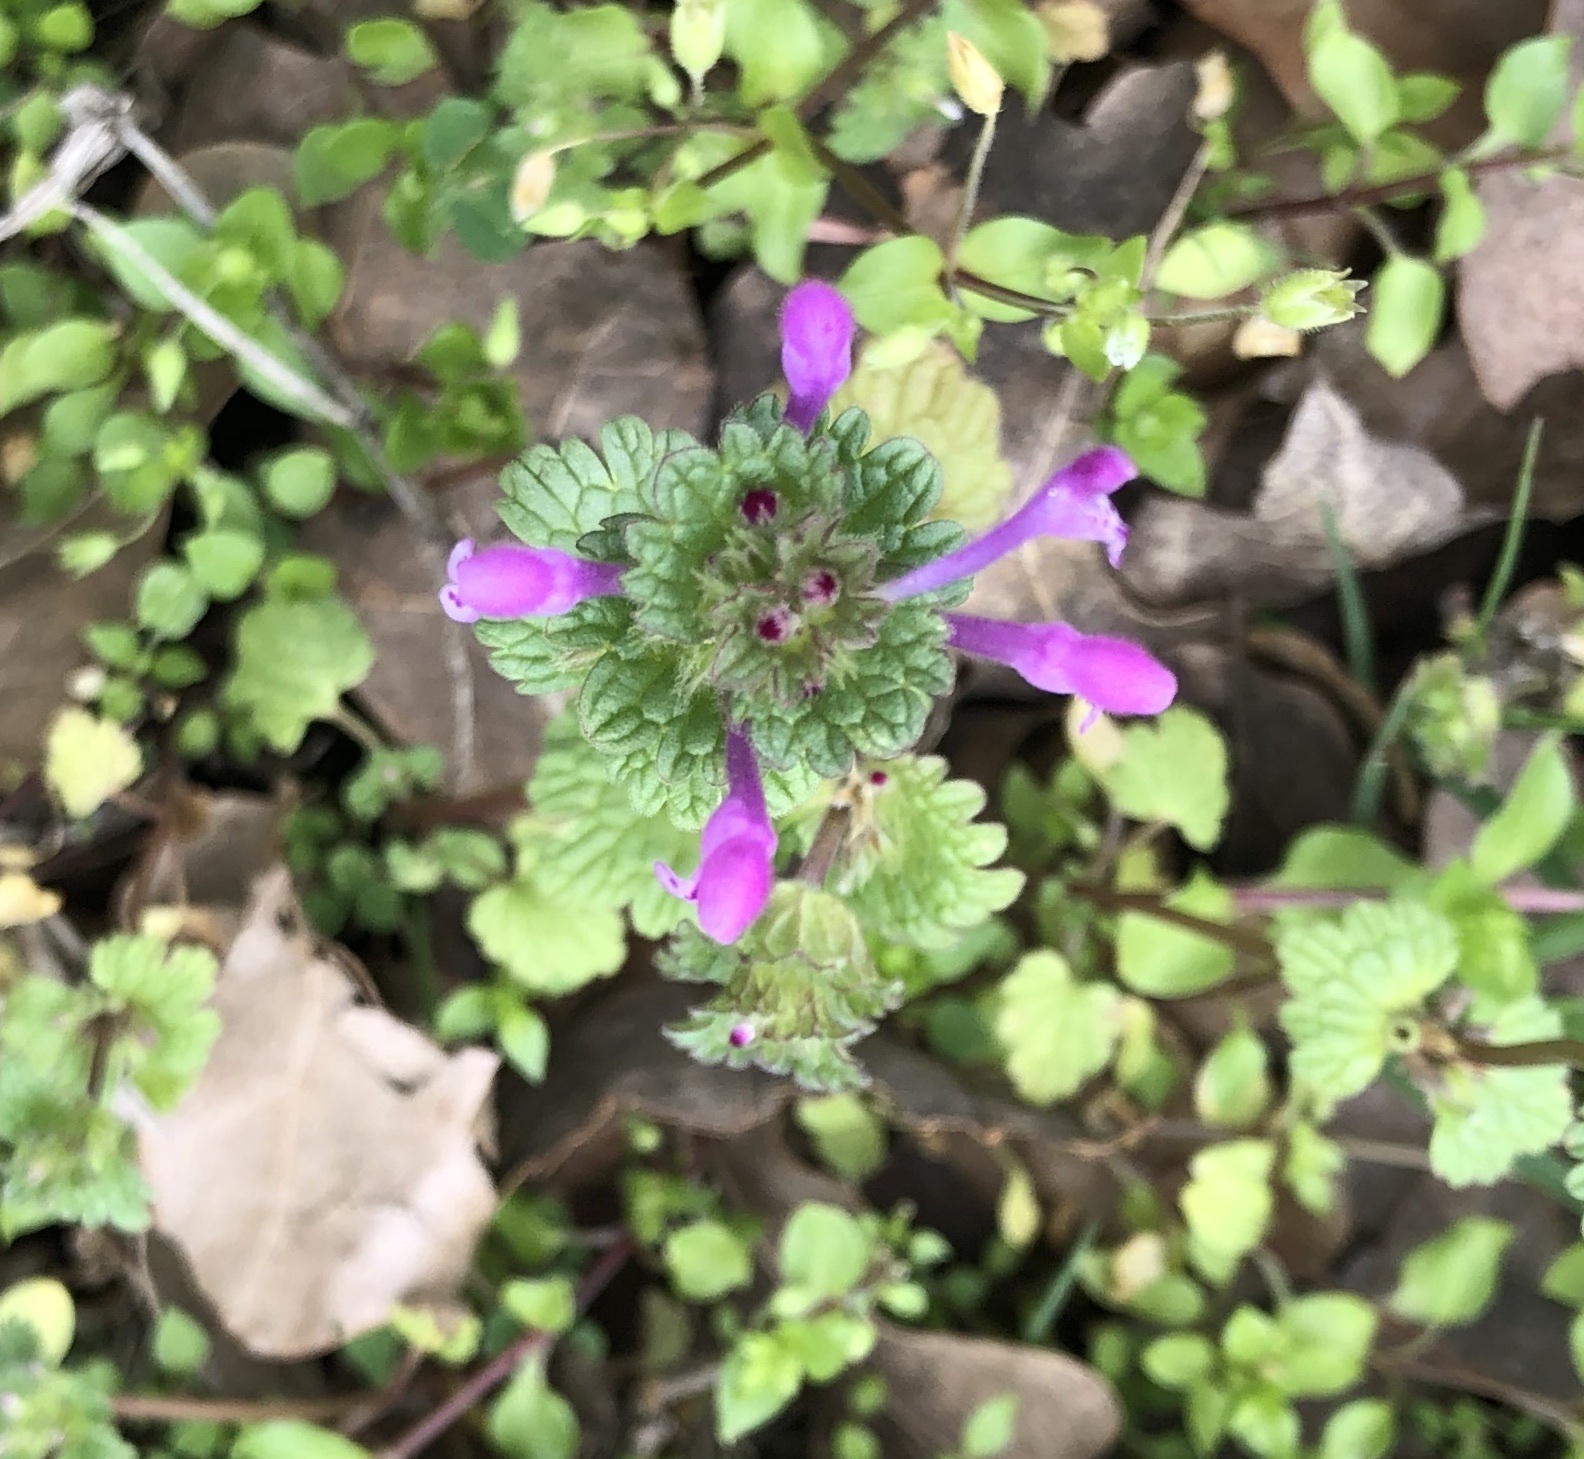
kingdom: Plantae
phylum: Tracheophyta
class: Magnoliopsida
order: Lamiales
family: Lamiaceae
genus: Lamium
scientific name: Lamium amplexicaule
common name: Henbit dead-nettle
